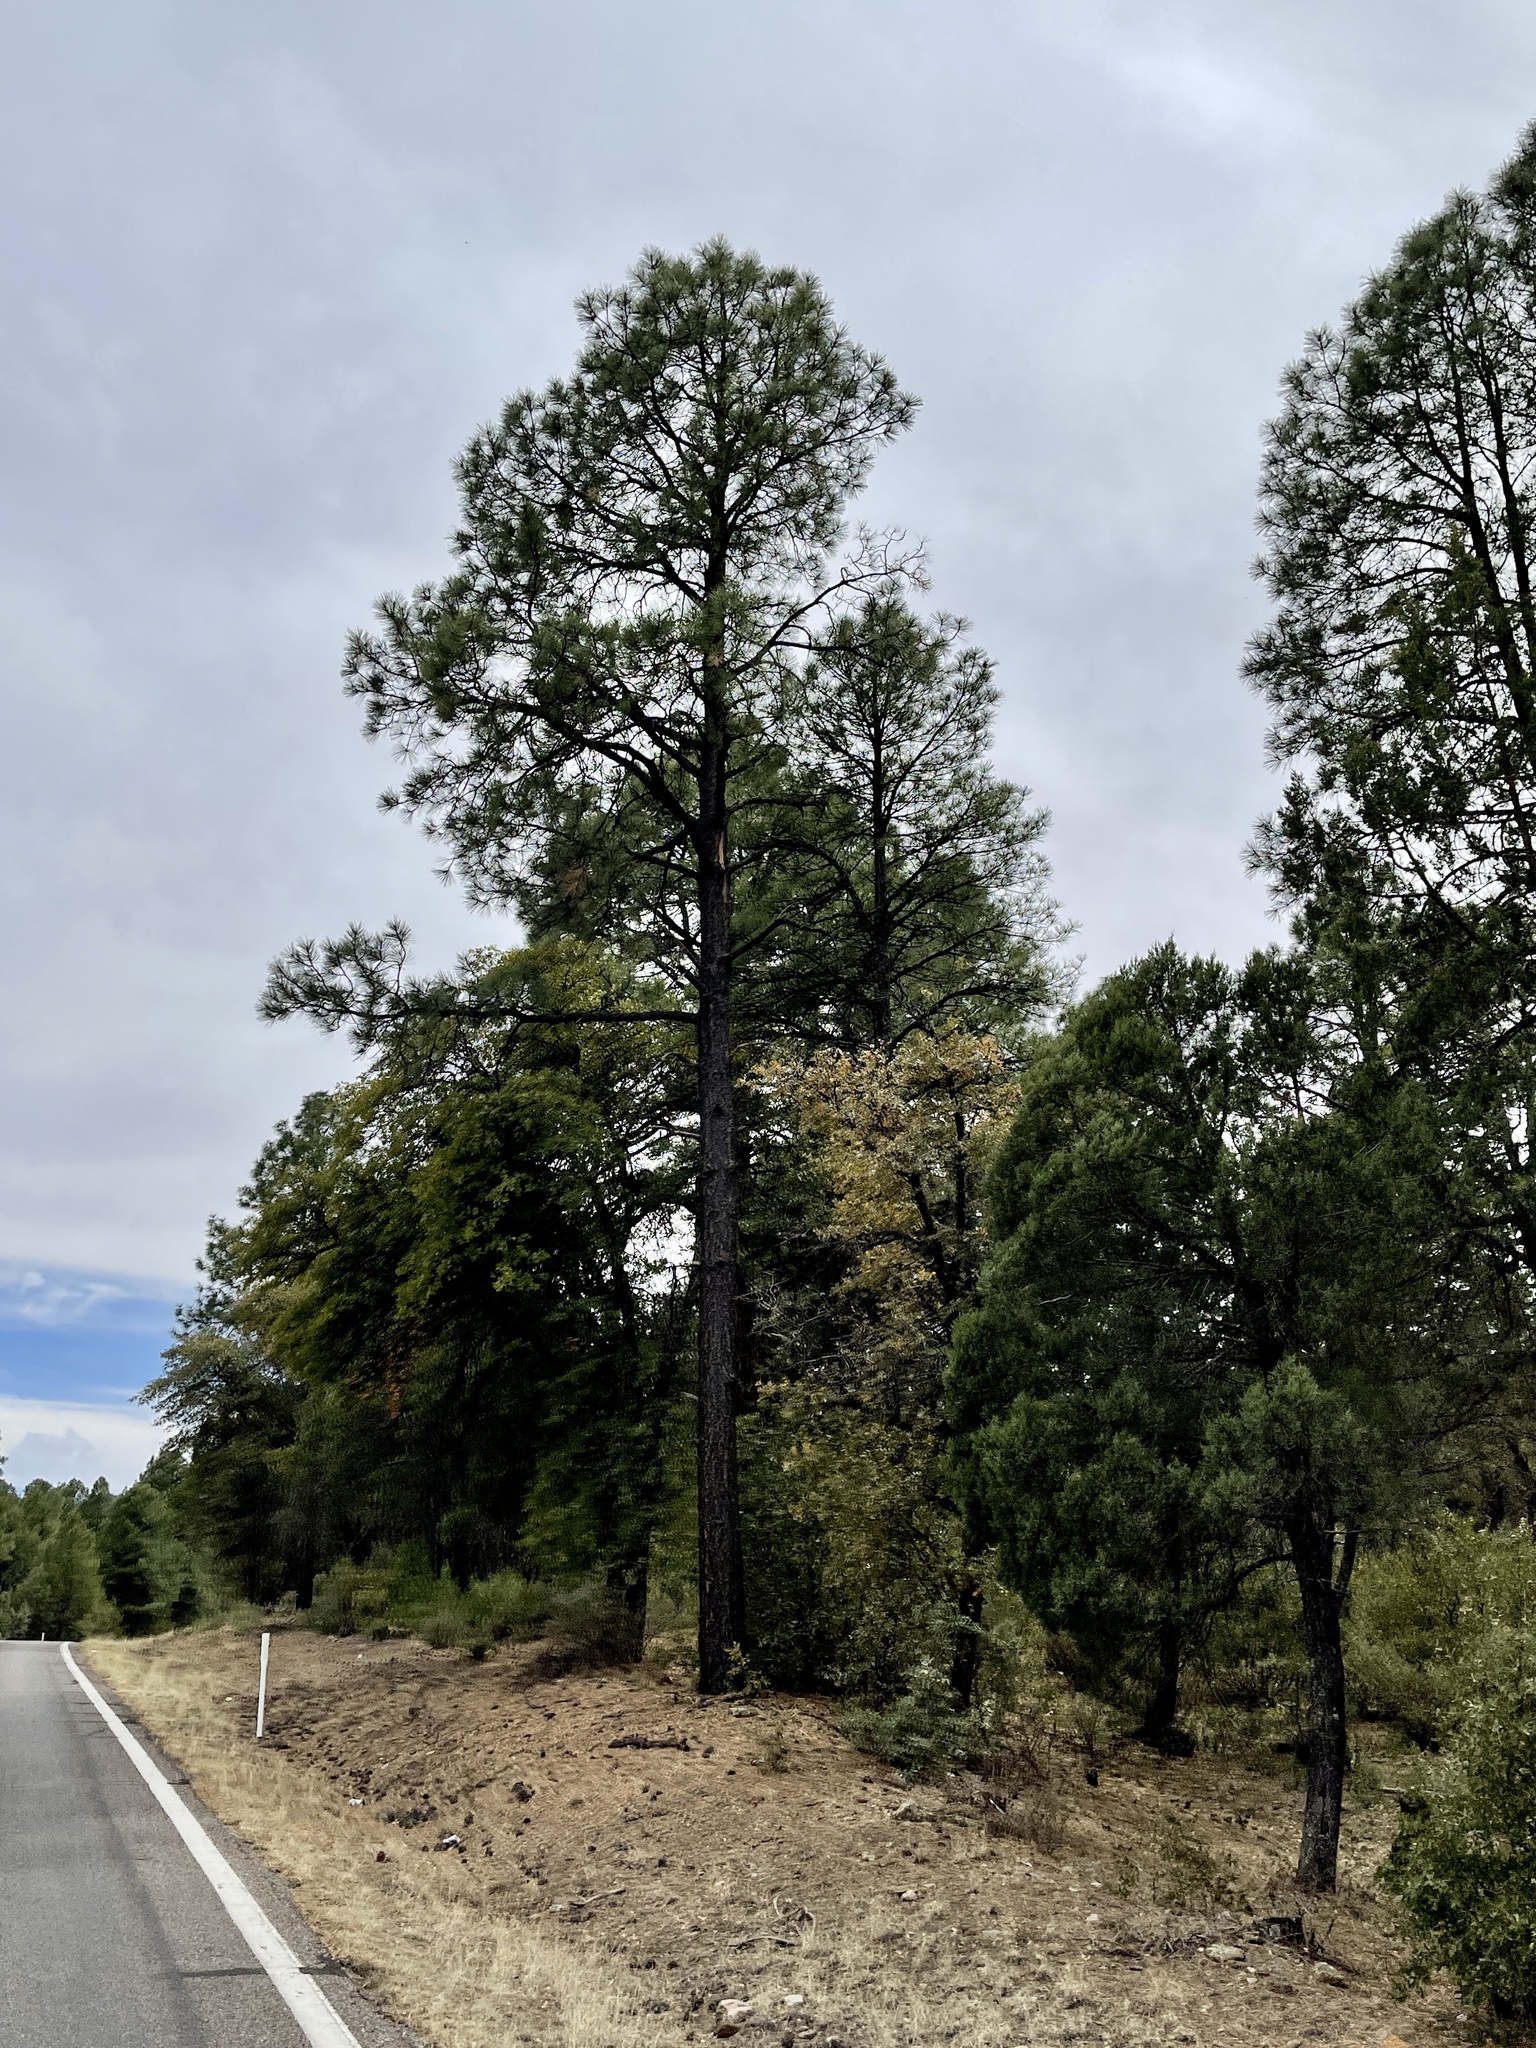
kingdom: Plantae
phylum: Tracheophyta
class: Pinopsida
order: Pinales
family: Pinaceae
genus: Pinus
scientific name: Pinus ponderosa
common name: Western yellow-pine
